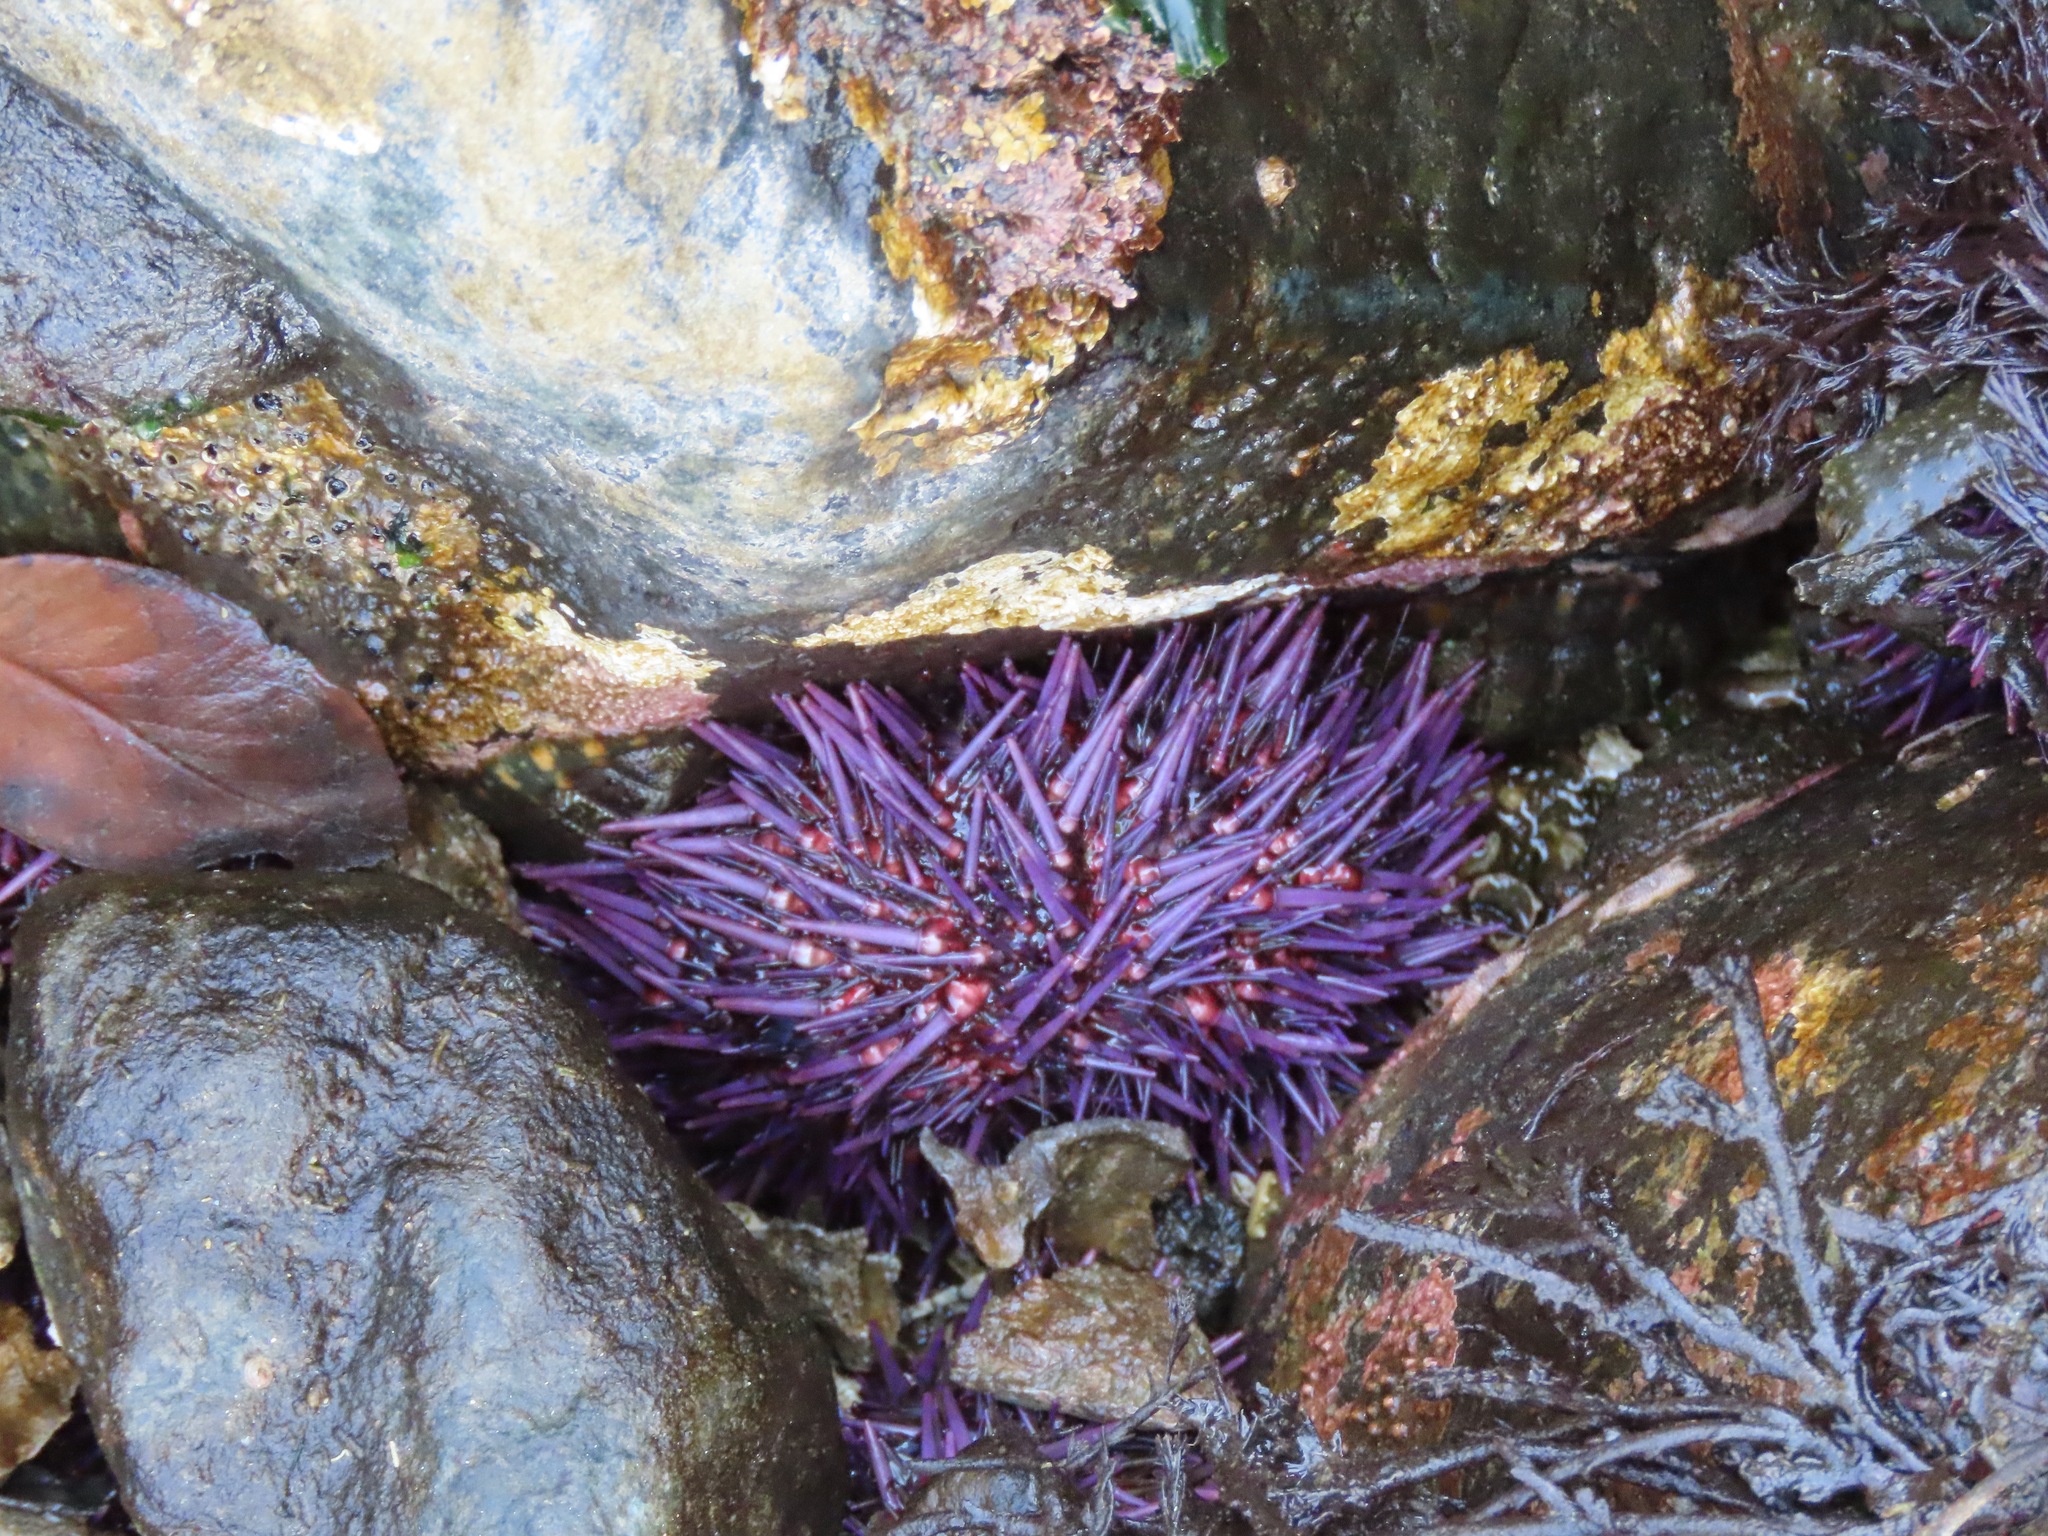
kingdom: Animalia
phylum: Echinodermata
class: Echinoidea
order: Camarodonta
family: Strongylocentrotidae
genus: Strongylocentrotus
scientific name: Strongylocentrotus purpuratus
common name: Purple sea urchin
